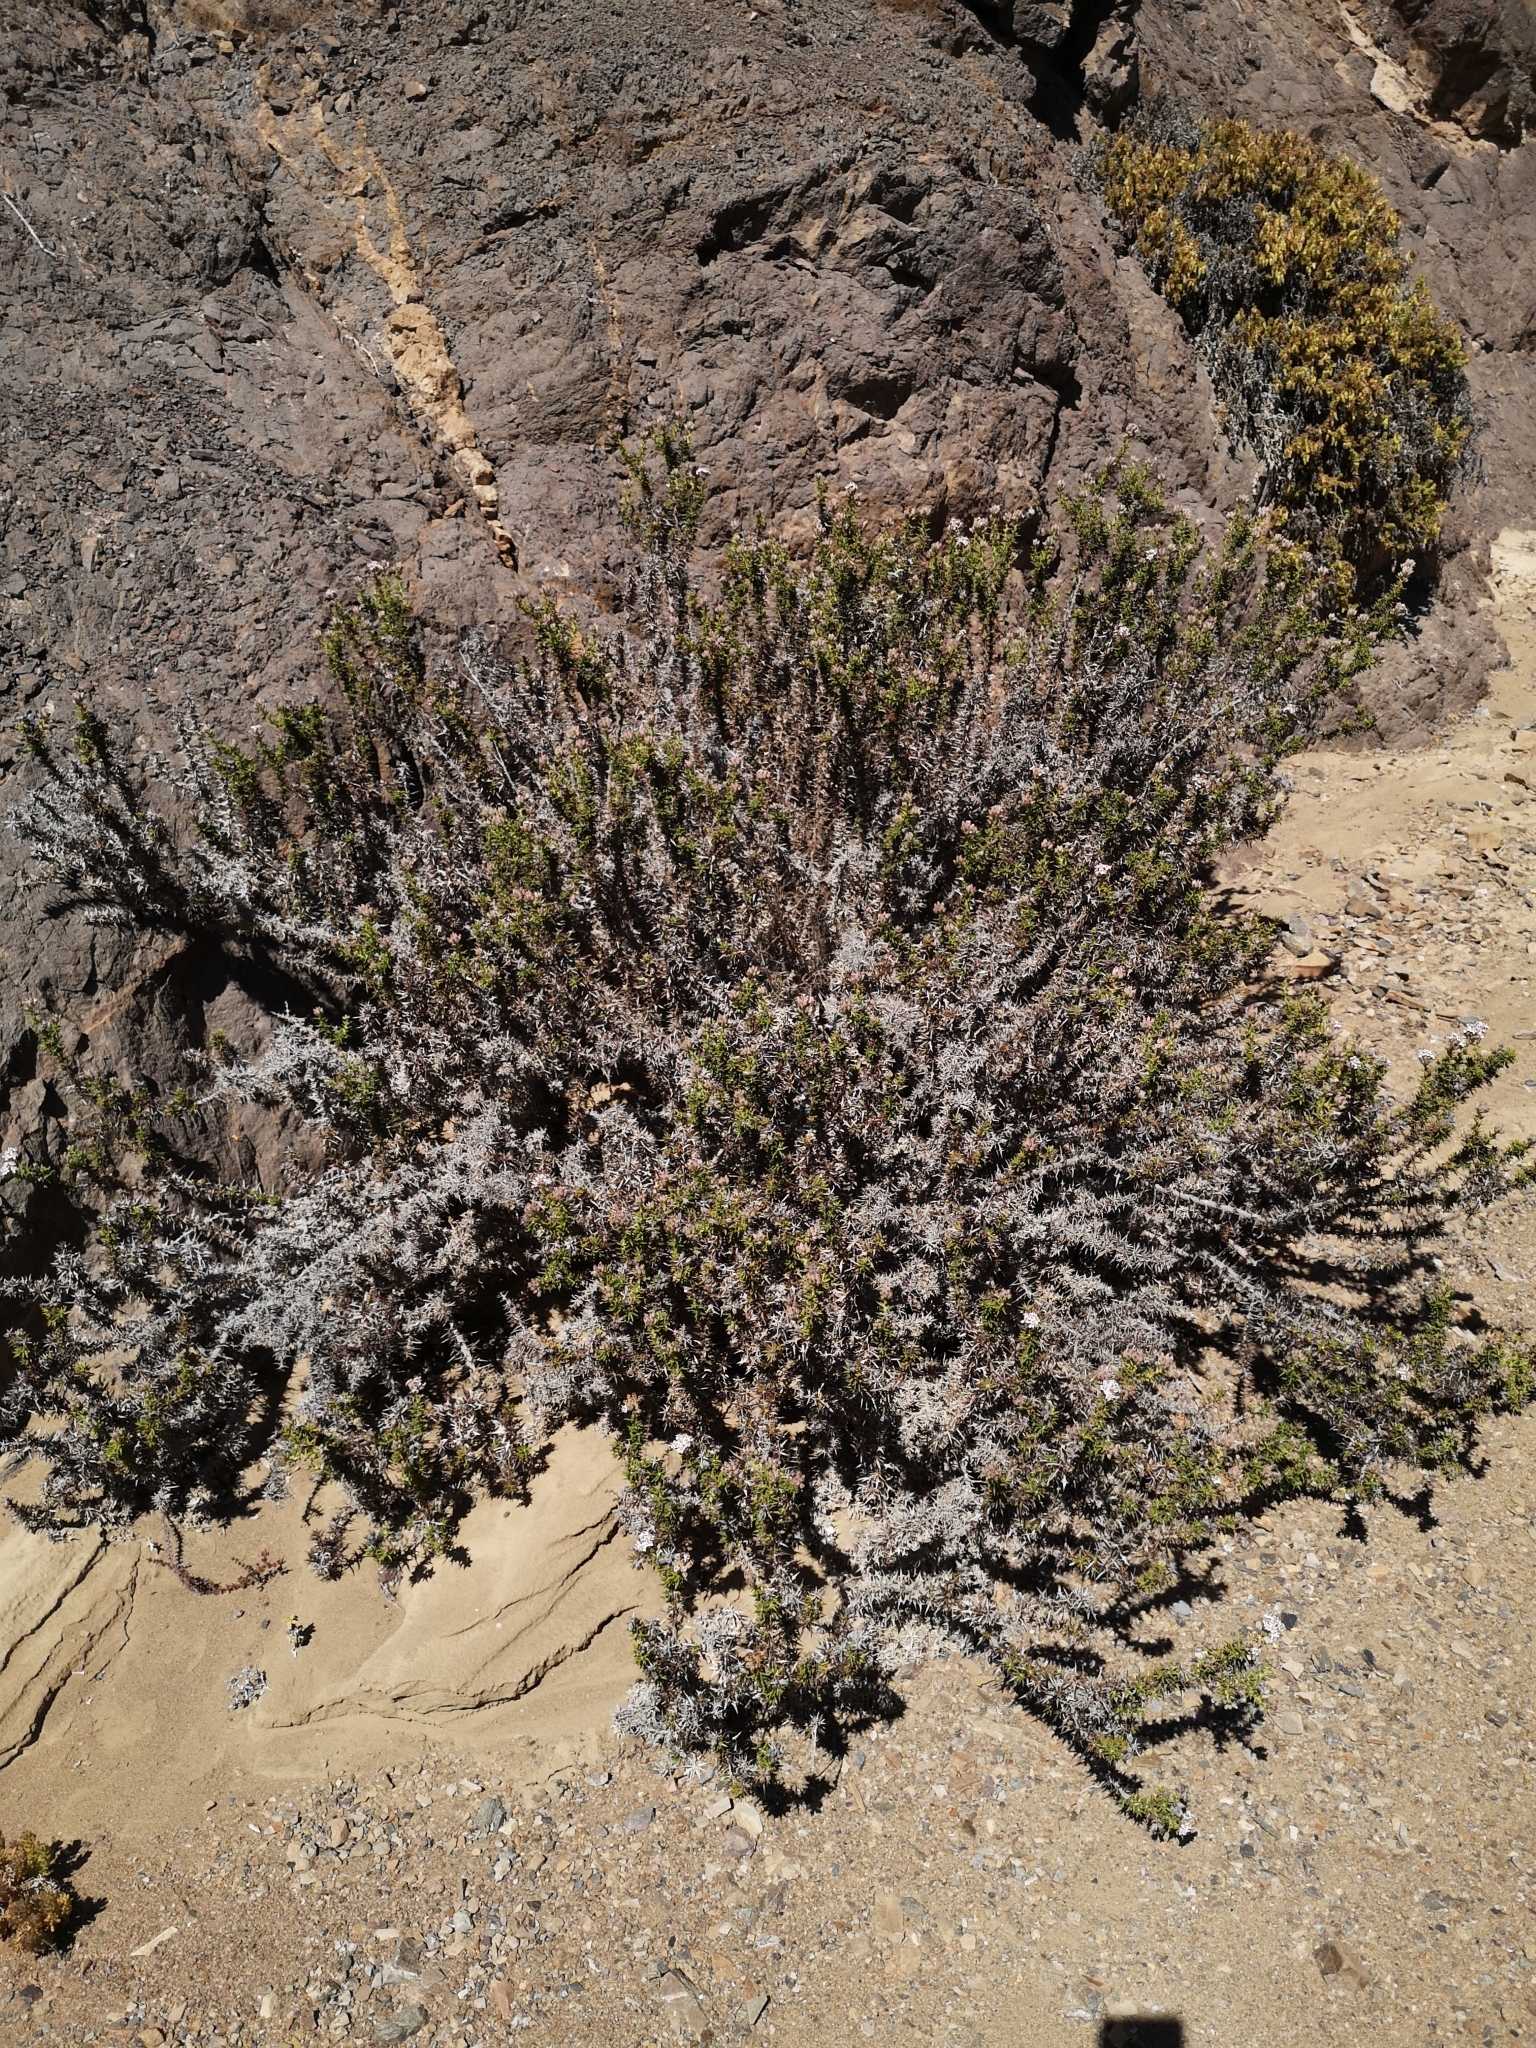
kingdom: Plantae
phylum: Tracheophyta
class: Magnoliopsida
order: Asterales
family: Asteraceae
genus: Oxyphyllum
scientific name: Oxyphyllum ulicinum
